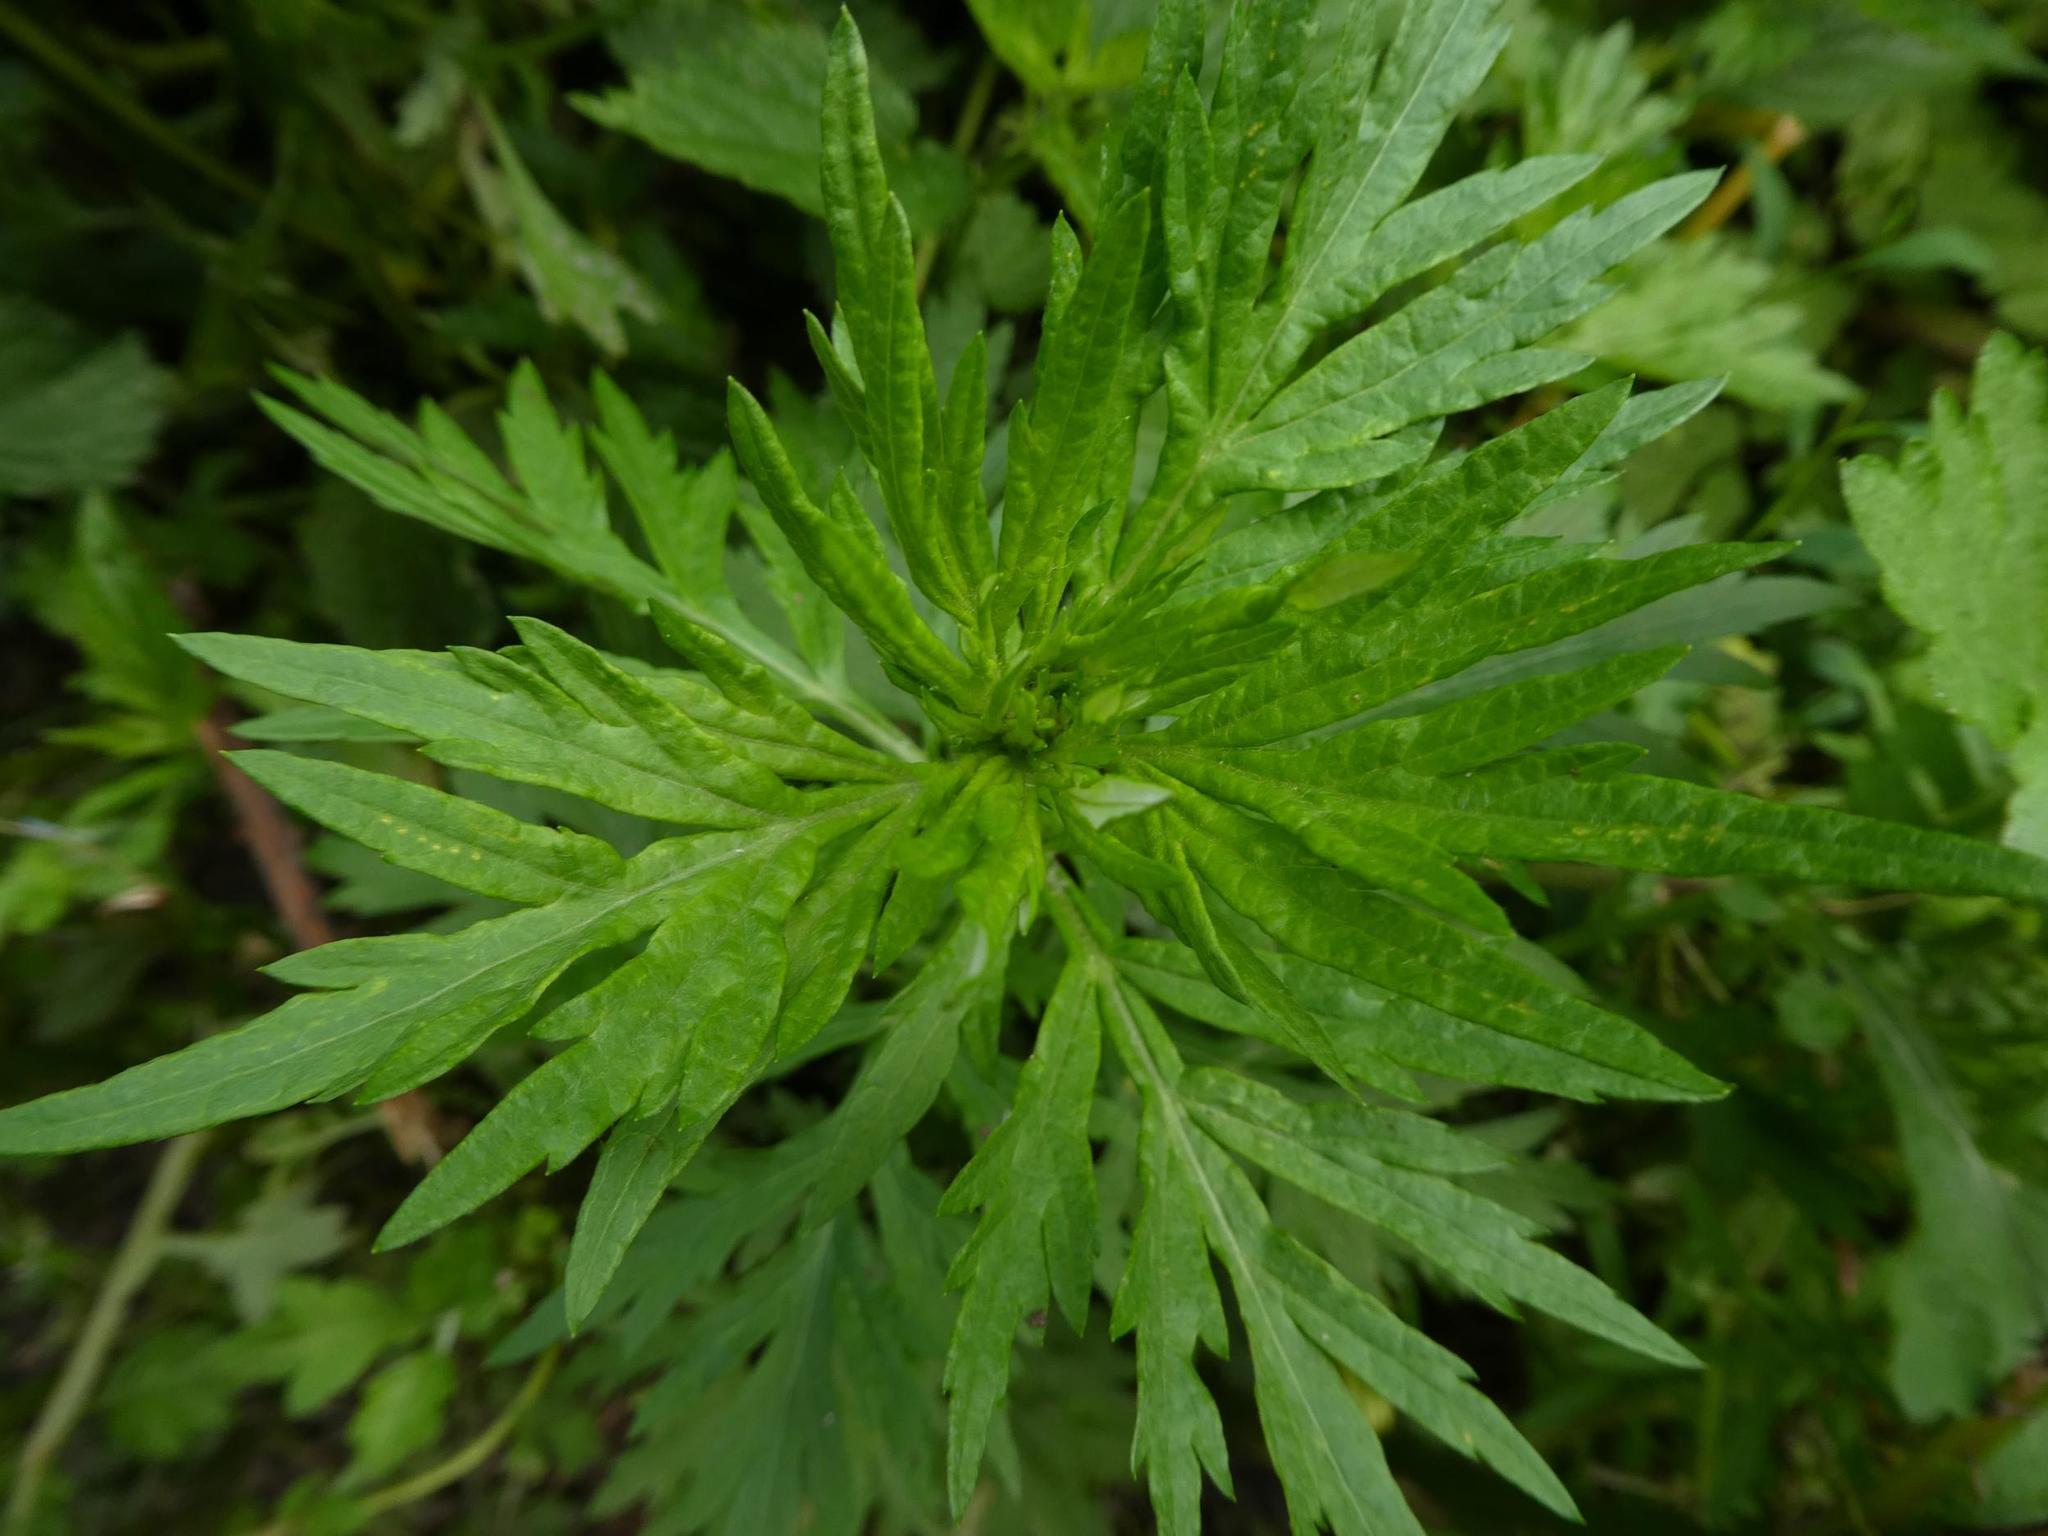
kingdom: Plantae
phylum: Tracheophyta
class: Magnoliopsida
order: Asterales
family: Asteraceae
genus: Artemisia
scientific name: Artemisia vulgaris
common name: Mugwort
